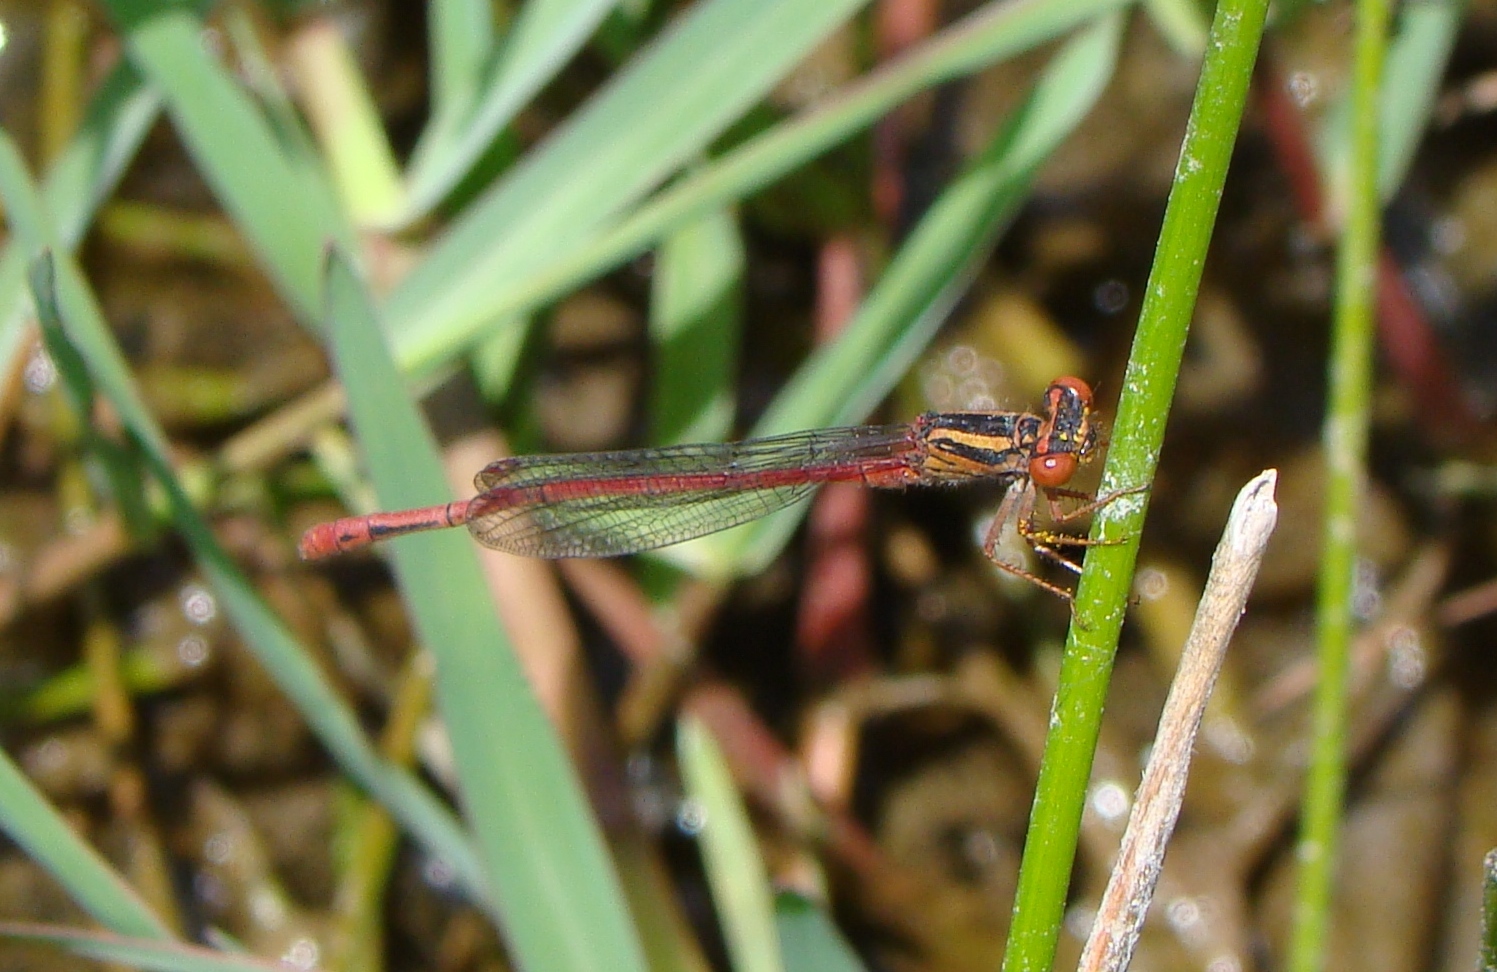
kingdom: Animalia
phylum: Arthropoda
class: Insecta
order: Odonata
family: Coenagrionidae
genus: Xanthocnemis
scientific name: Xanthocnemis zealandica
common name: Common redcoat damselfly
